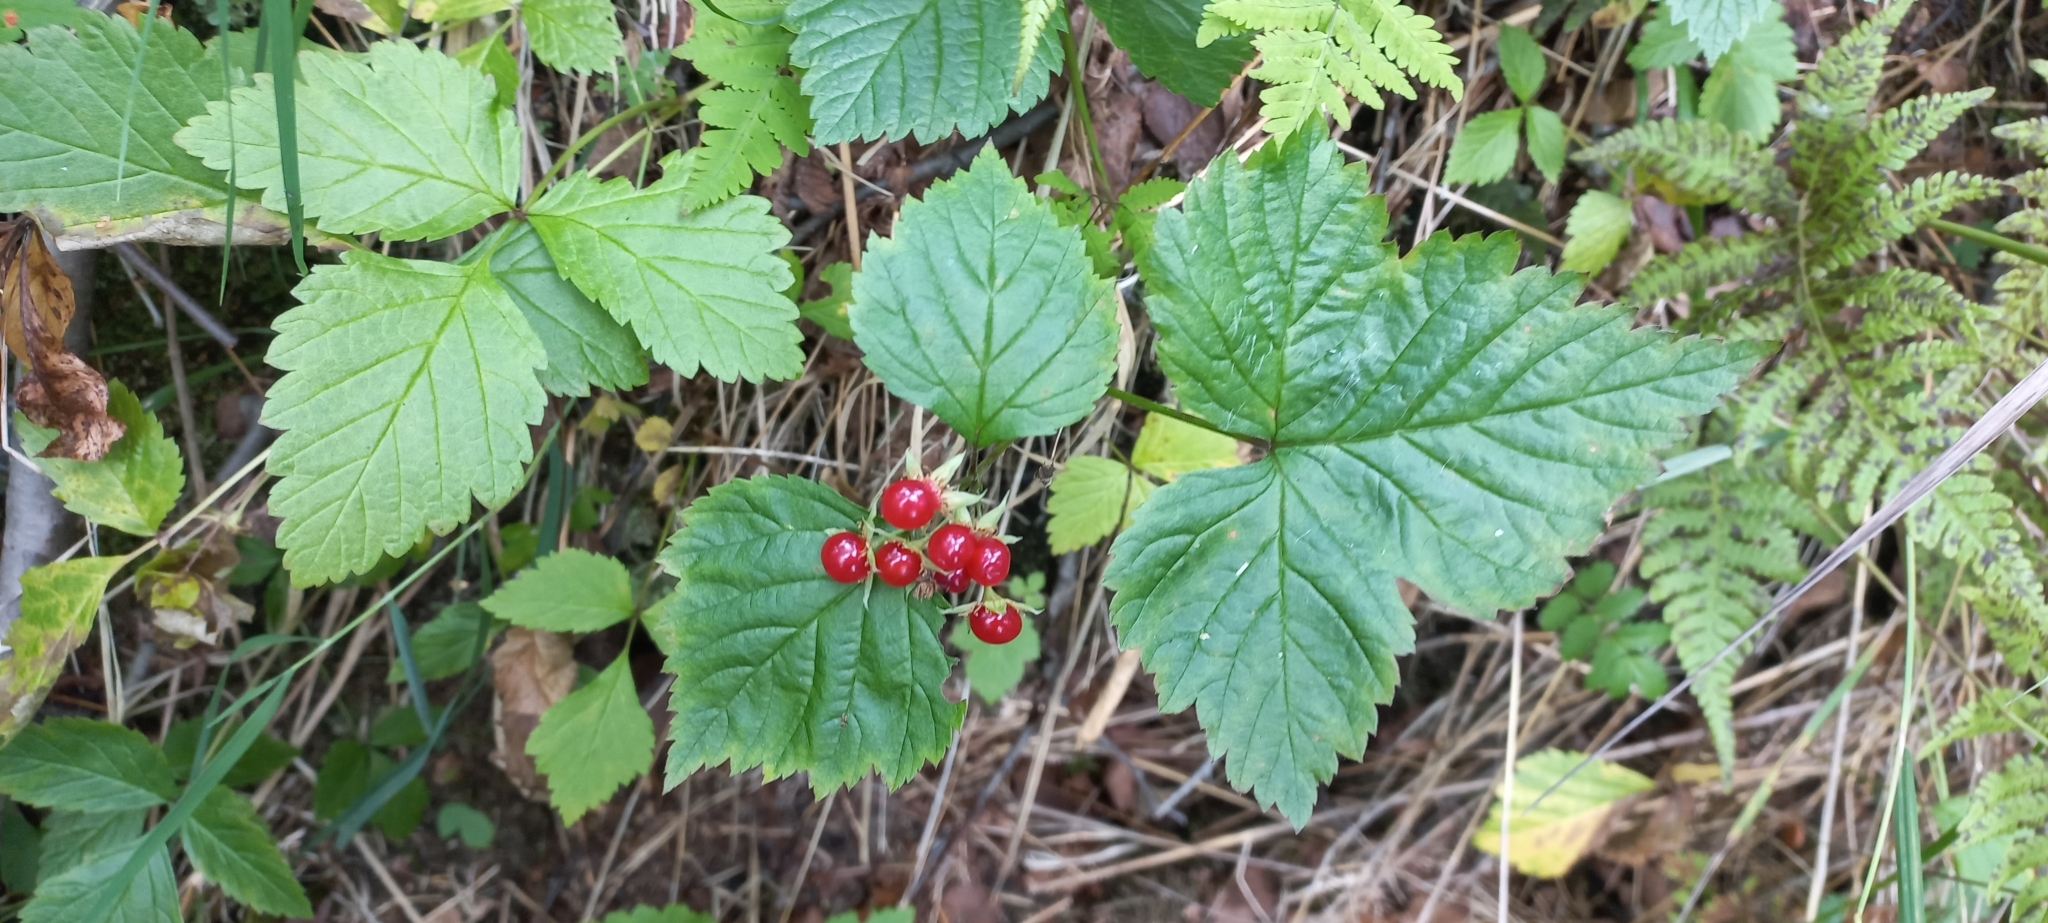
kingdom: Plantae
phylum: Tracheophyta
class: Magnoliopsida
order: Rosales
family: Rosaceae
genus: Rubus
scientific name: Rubus saxatilis
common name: Stone bramble
